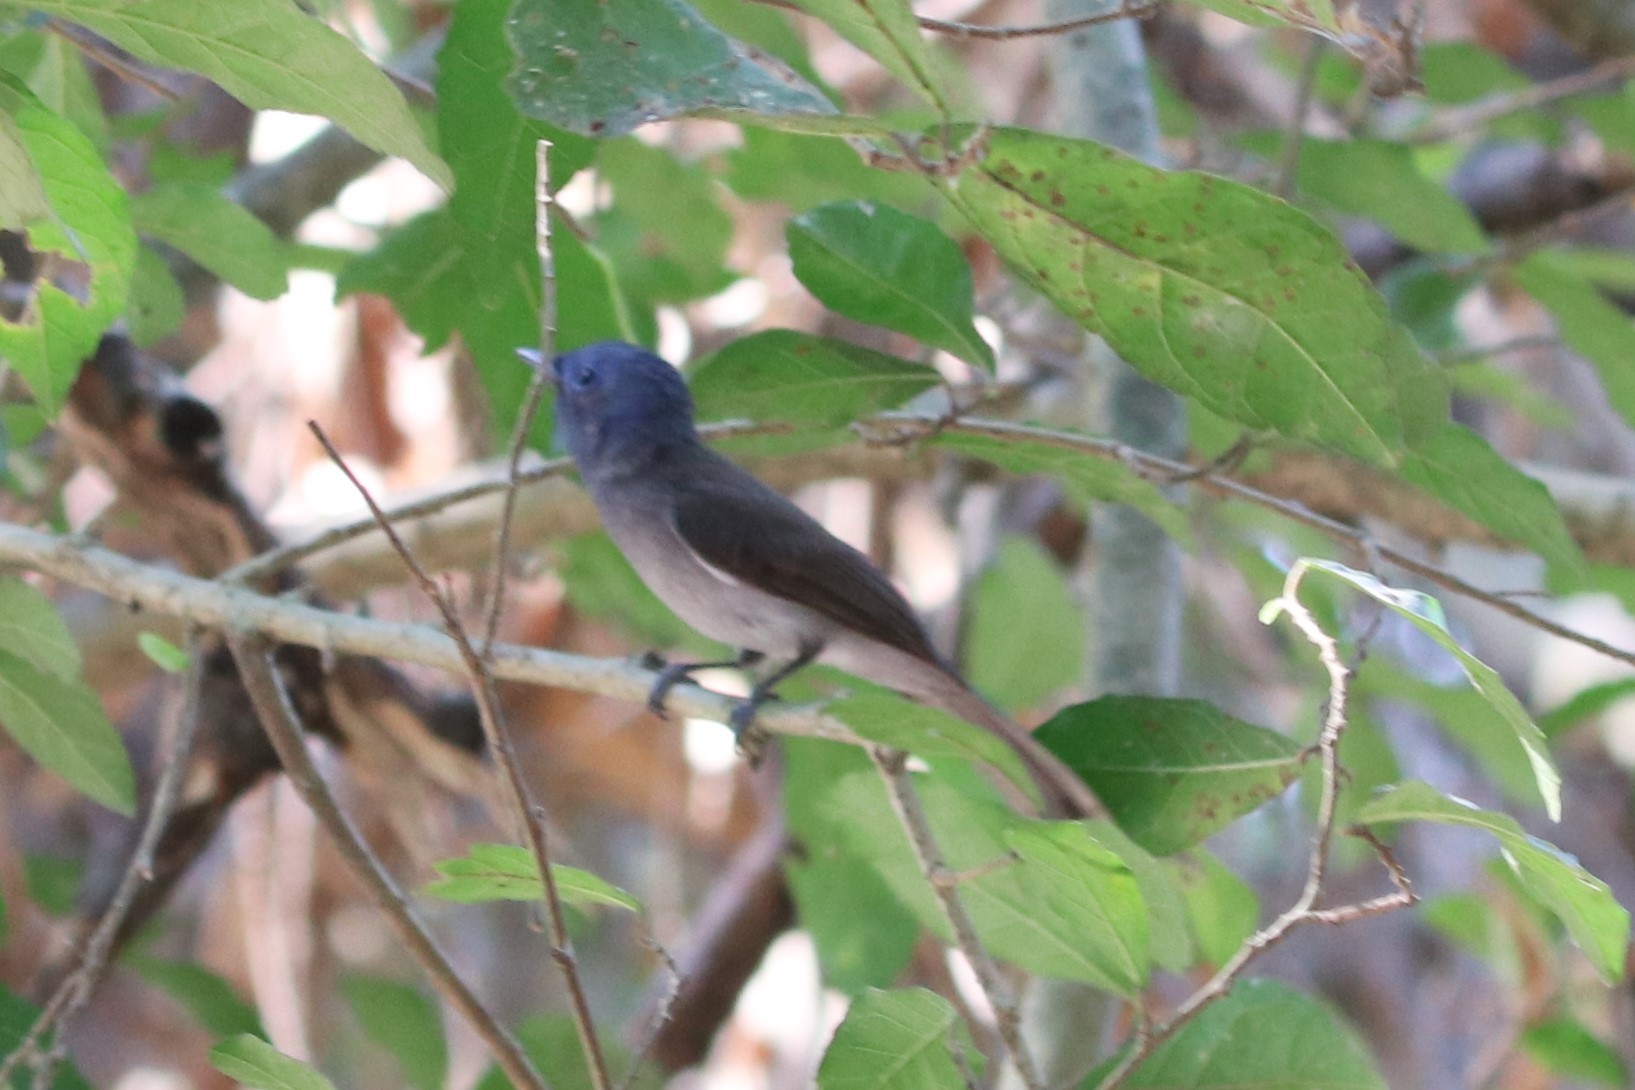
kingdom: Animalia
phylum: Chordata
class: Aves
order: Passeriformes
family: Monarchidae
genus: Hypothymis
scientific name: Hypothymis azurea
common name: Black-naped monarch
